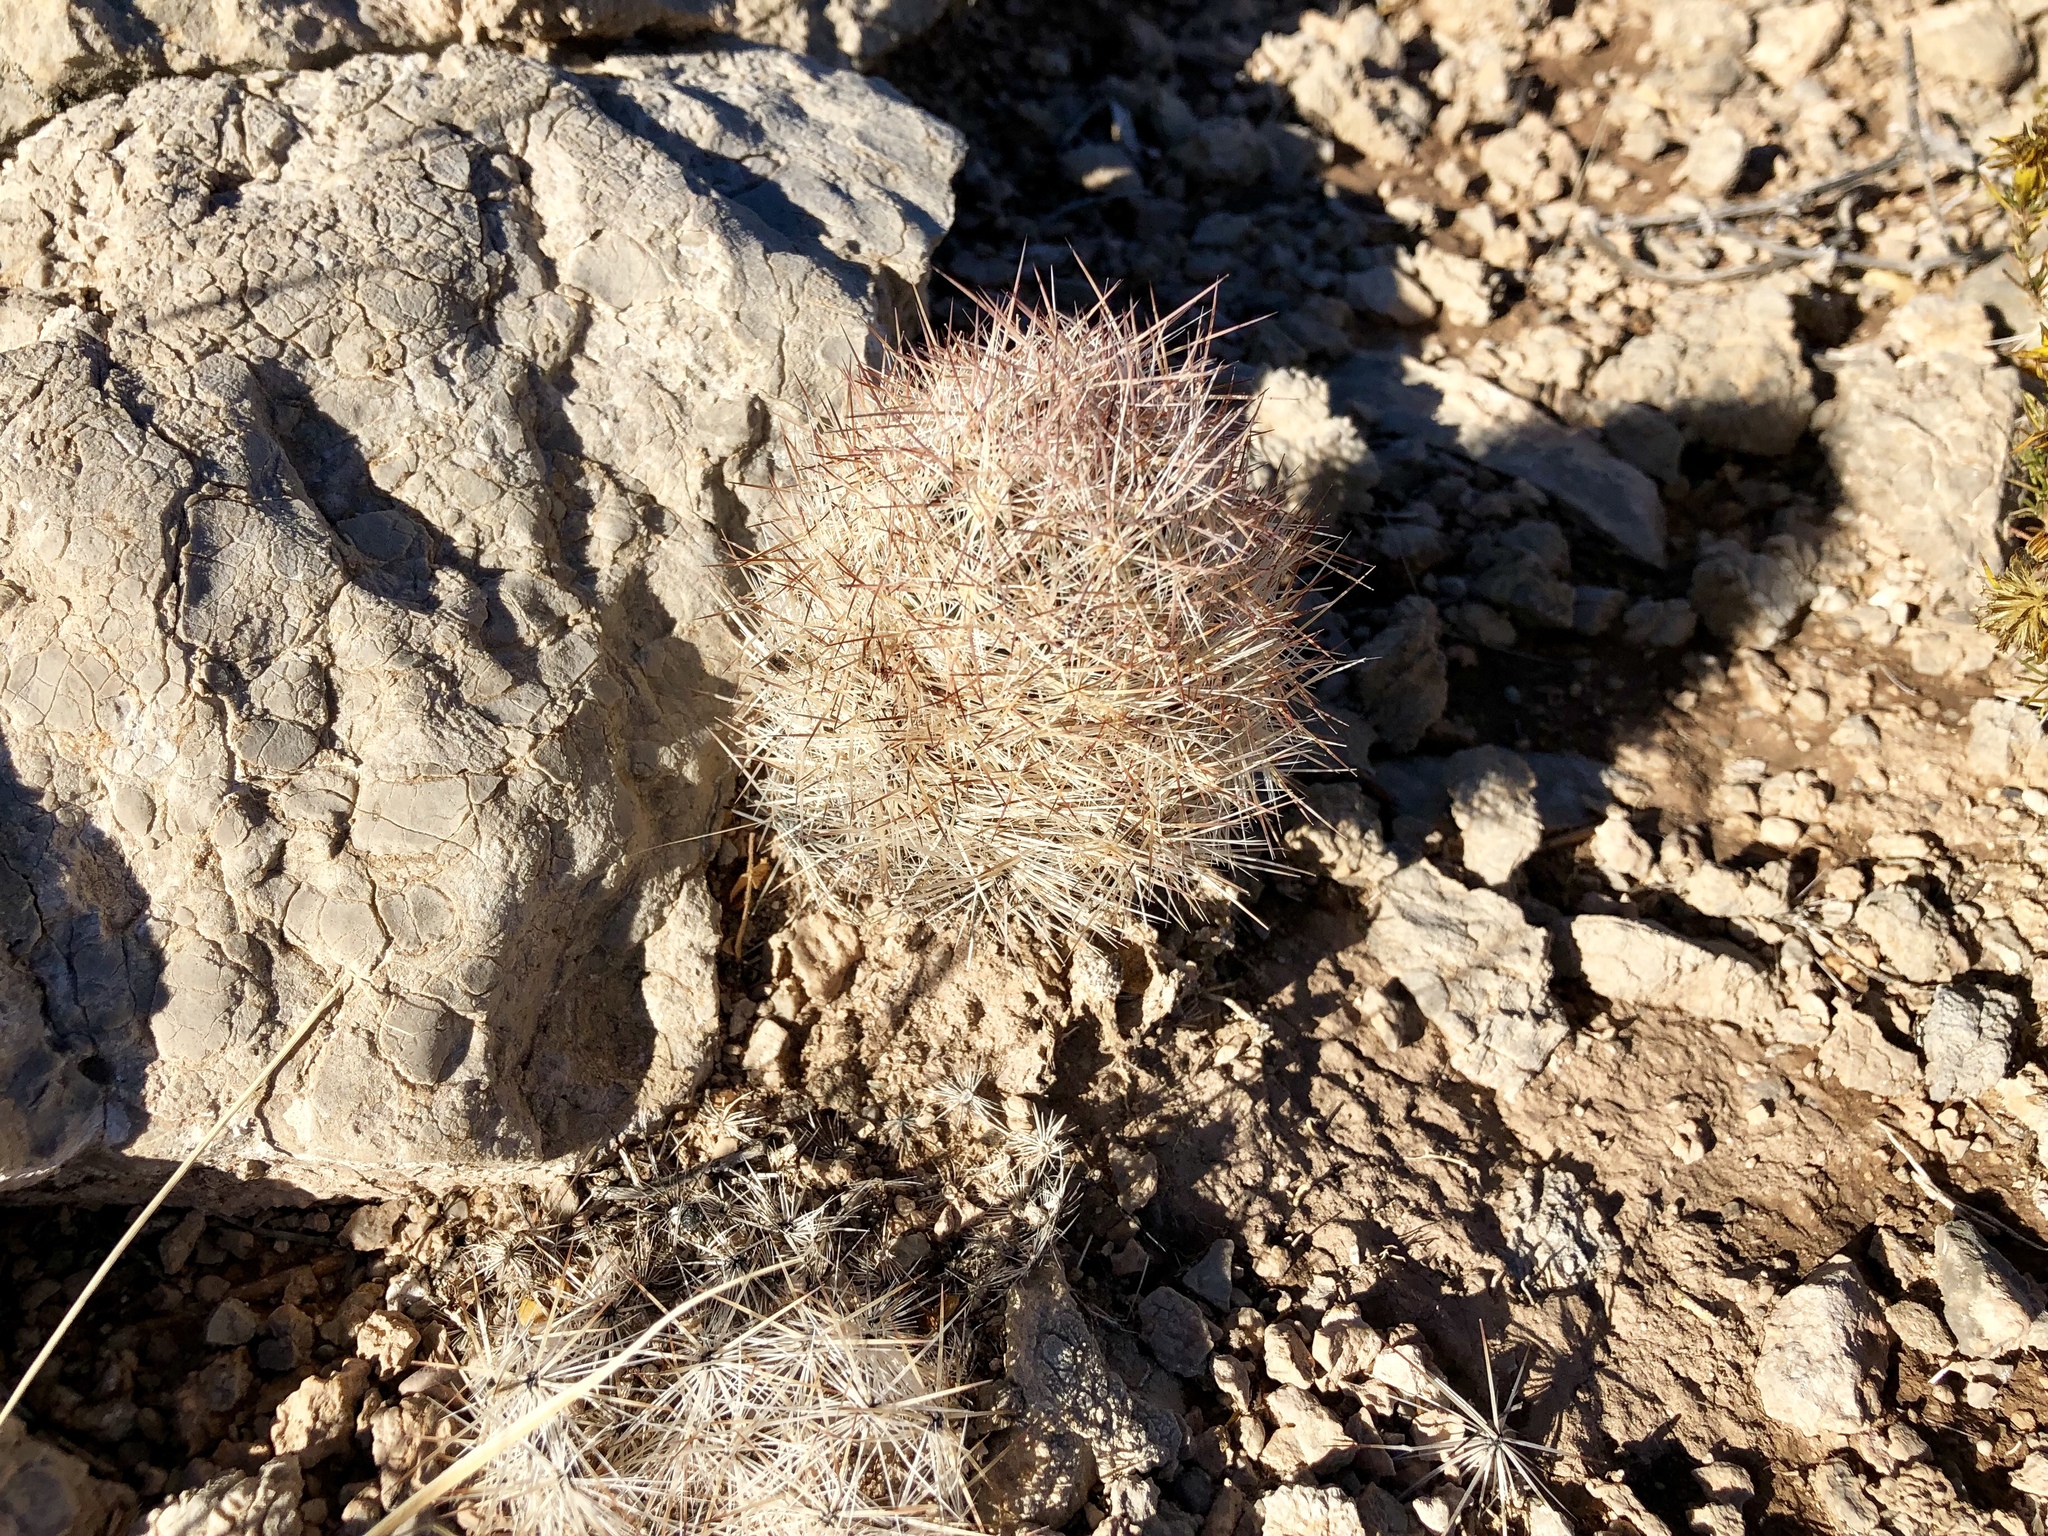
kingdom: Plantae
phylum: Tracheophyta
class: Magnoliopsida
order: Caryophyllales
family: Cactaceae
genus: Pelecyphora
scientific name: Pelecyphora sneedii
